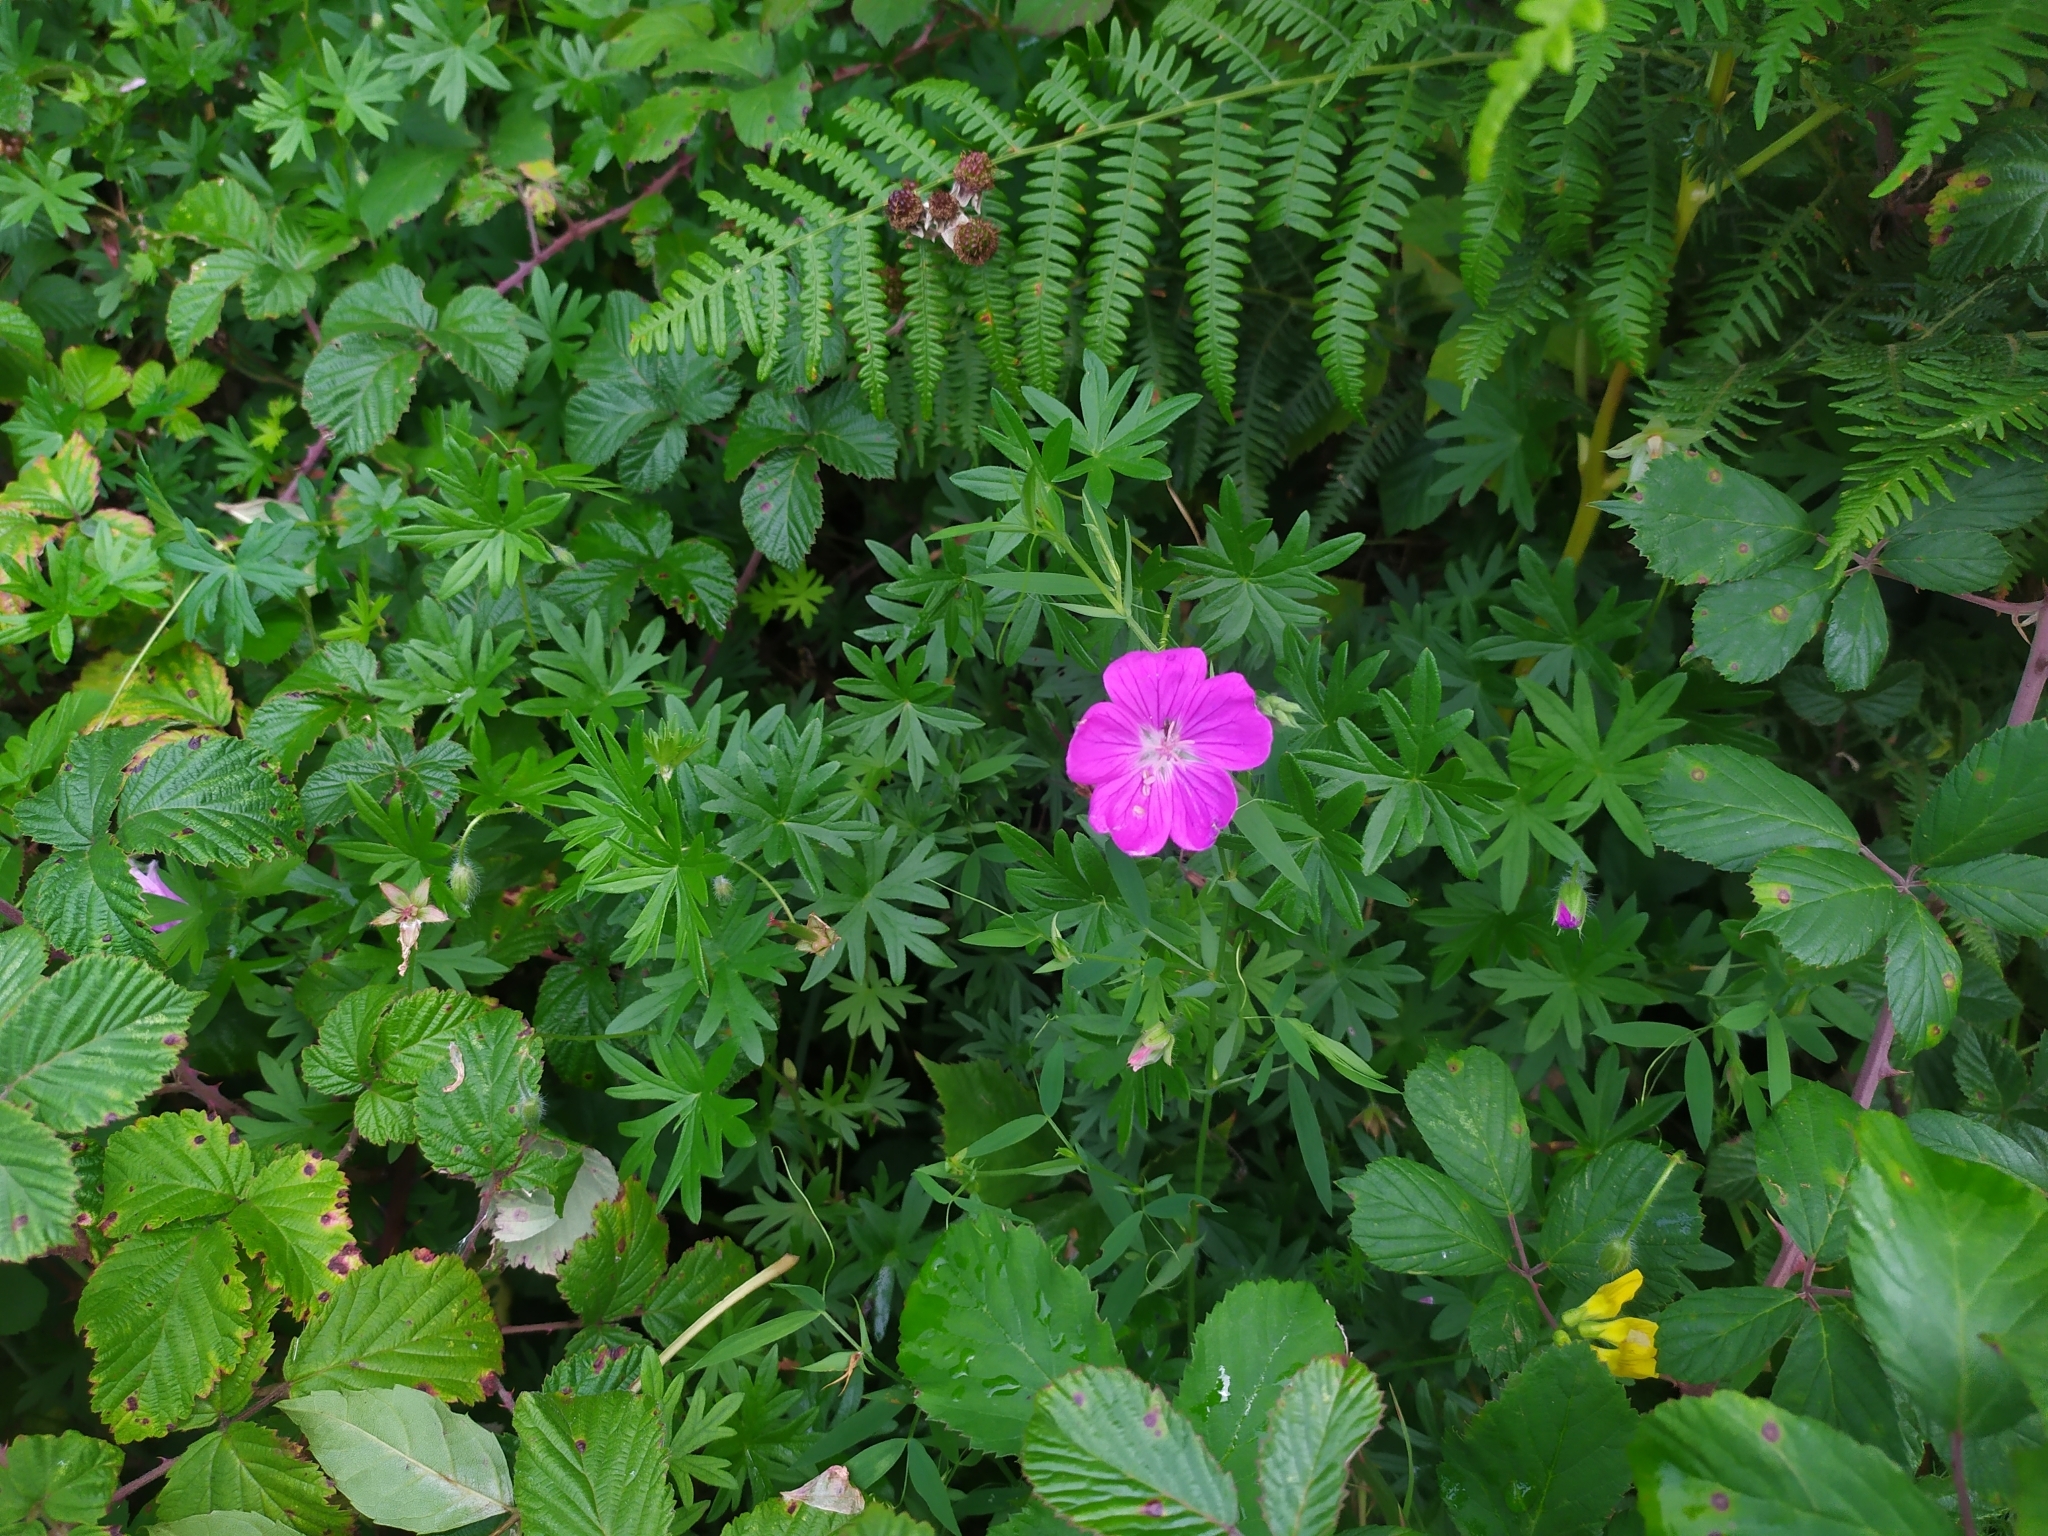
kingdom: Plantae
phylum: Tracheophyta
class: Magnoliopsida
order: Geraniales
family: Geraniaceae
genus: Geranium
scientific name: Geranium sanguineum
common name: Bloody crane's-bill
